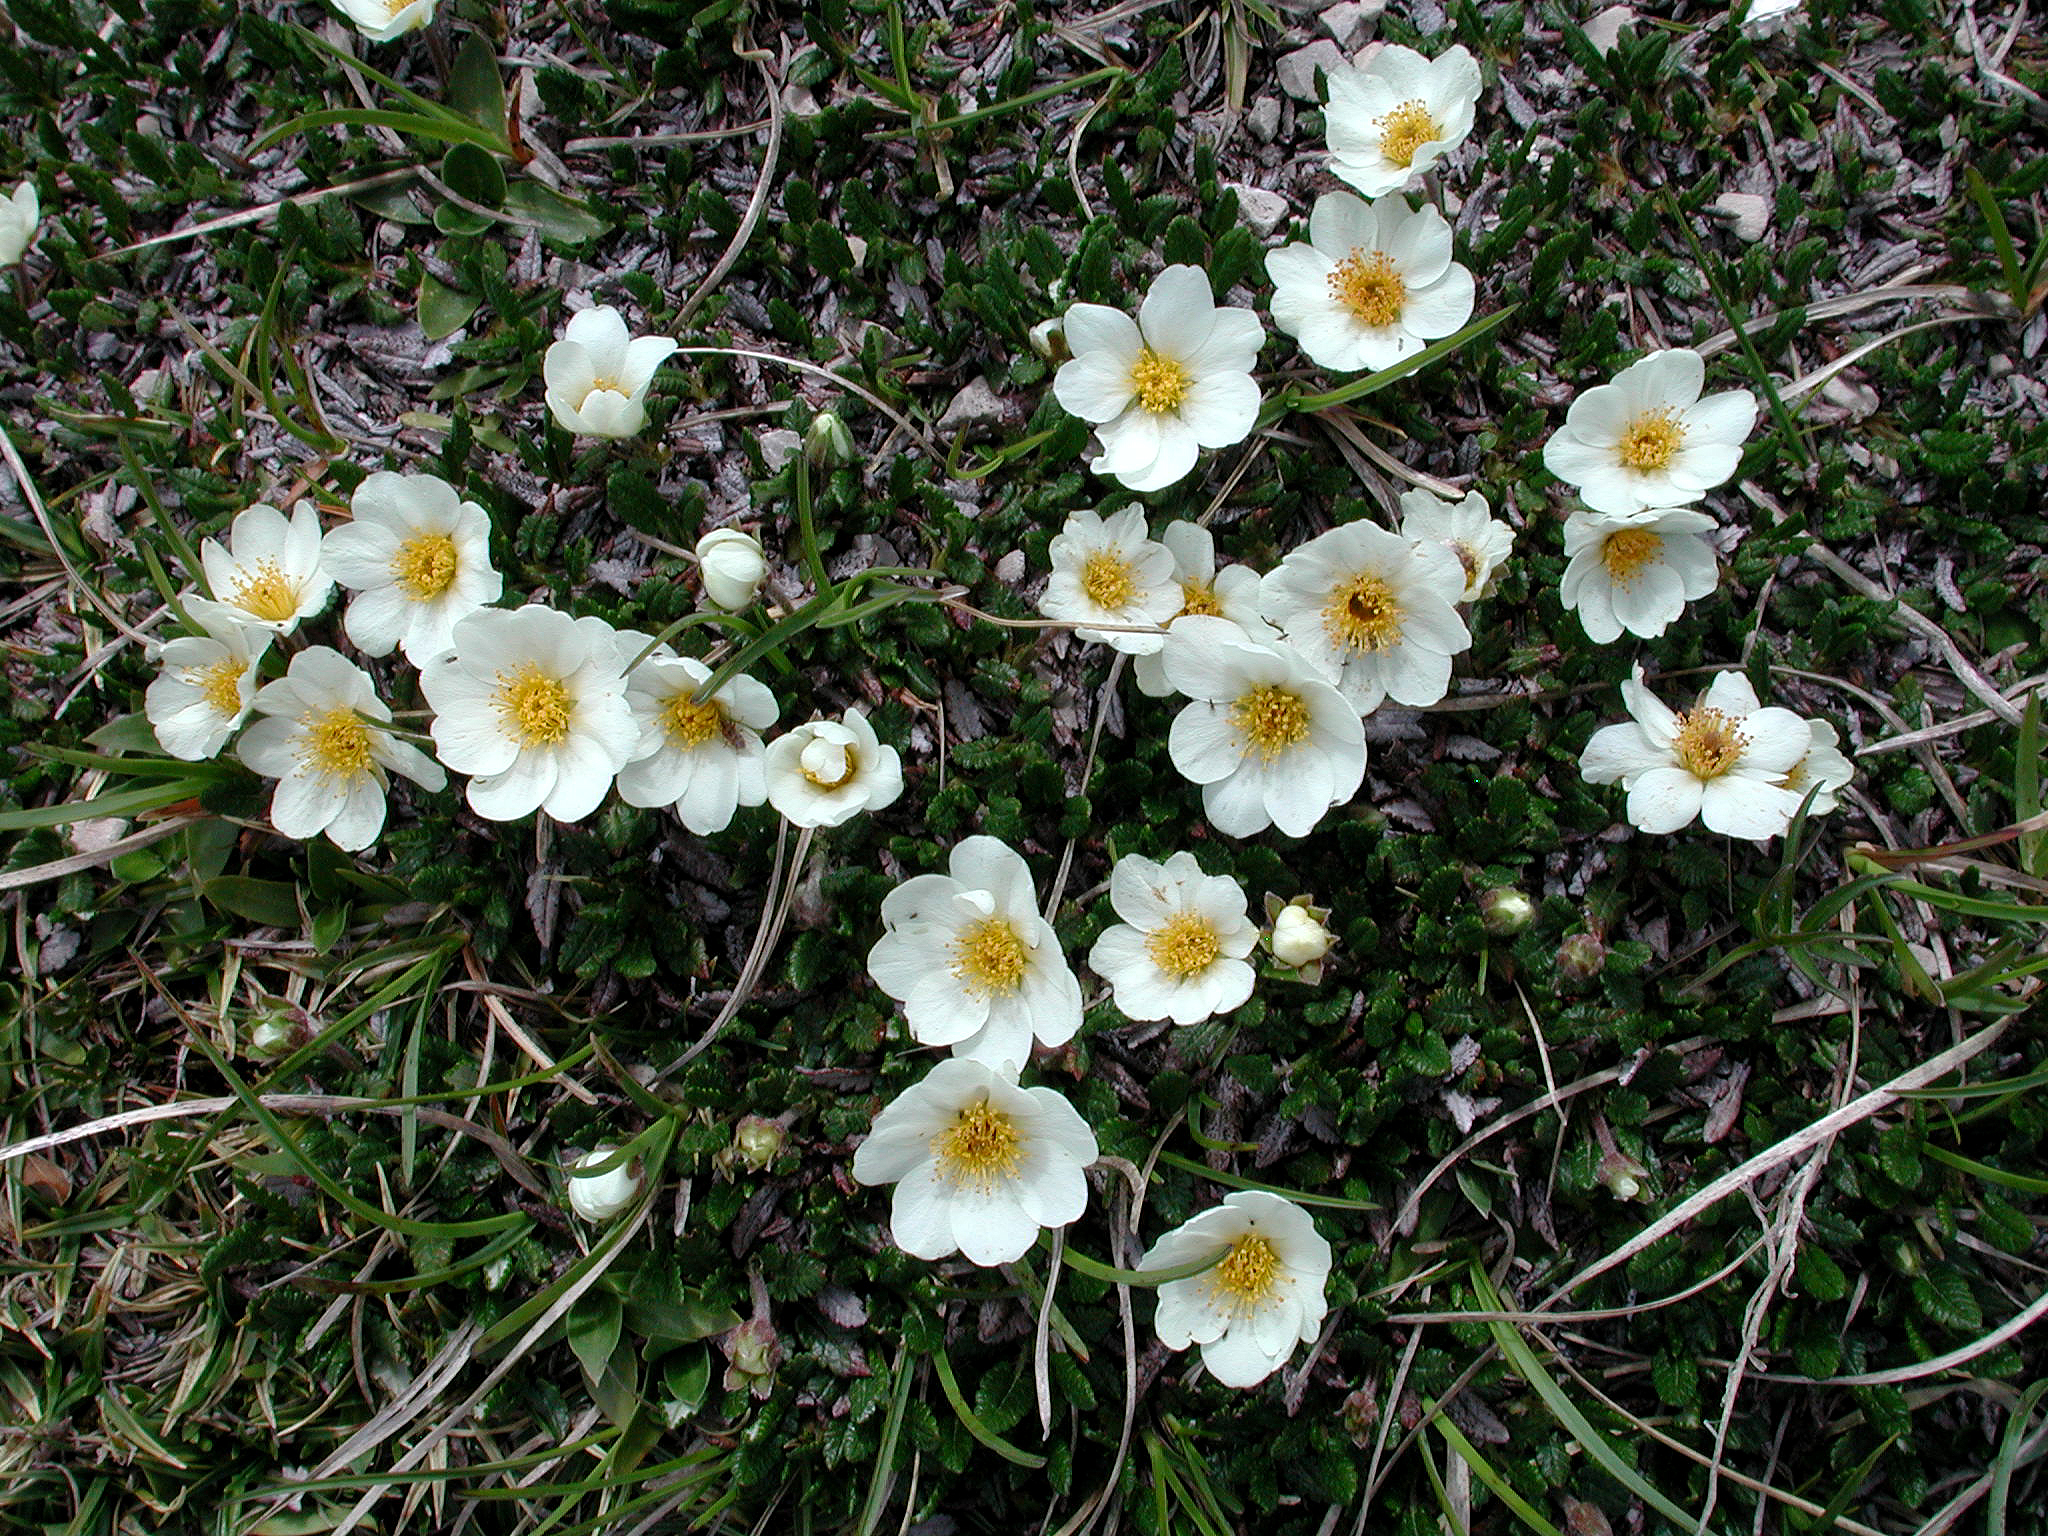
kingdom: Plantae
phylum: Tracheophyta
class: Magnoliopsida
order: Rosales
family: Rosaceae
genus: Dryas
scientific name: Dryas octopetala
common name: Eight-petal mountain-avens
